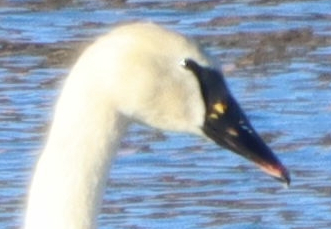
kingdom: Animalia
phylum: Chordata
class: Aves
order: Anseriformes
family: Anatidae
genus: Cygnus
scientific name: Cygnus
